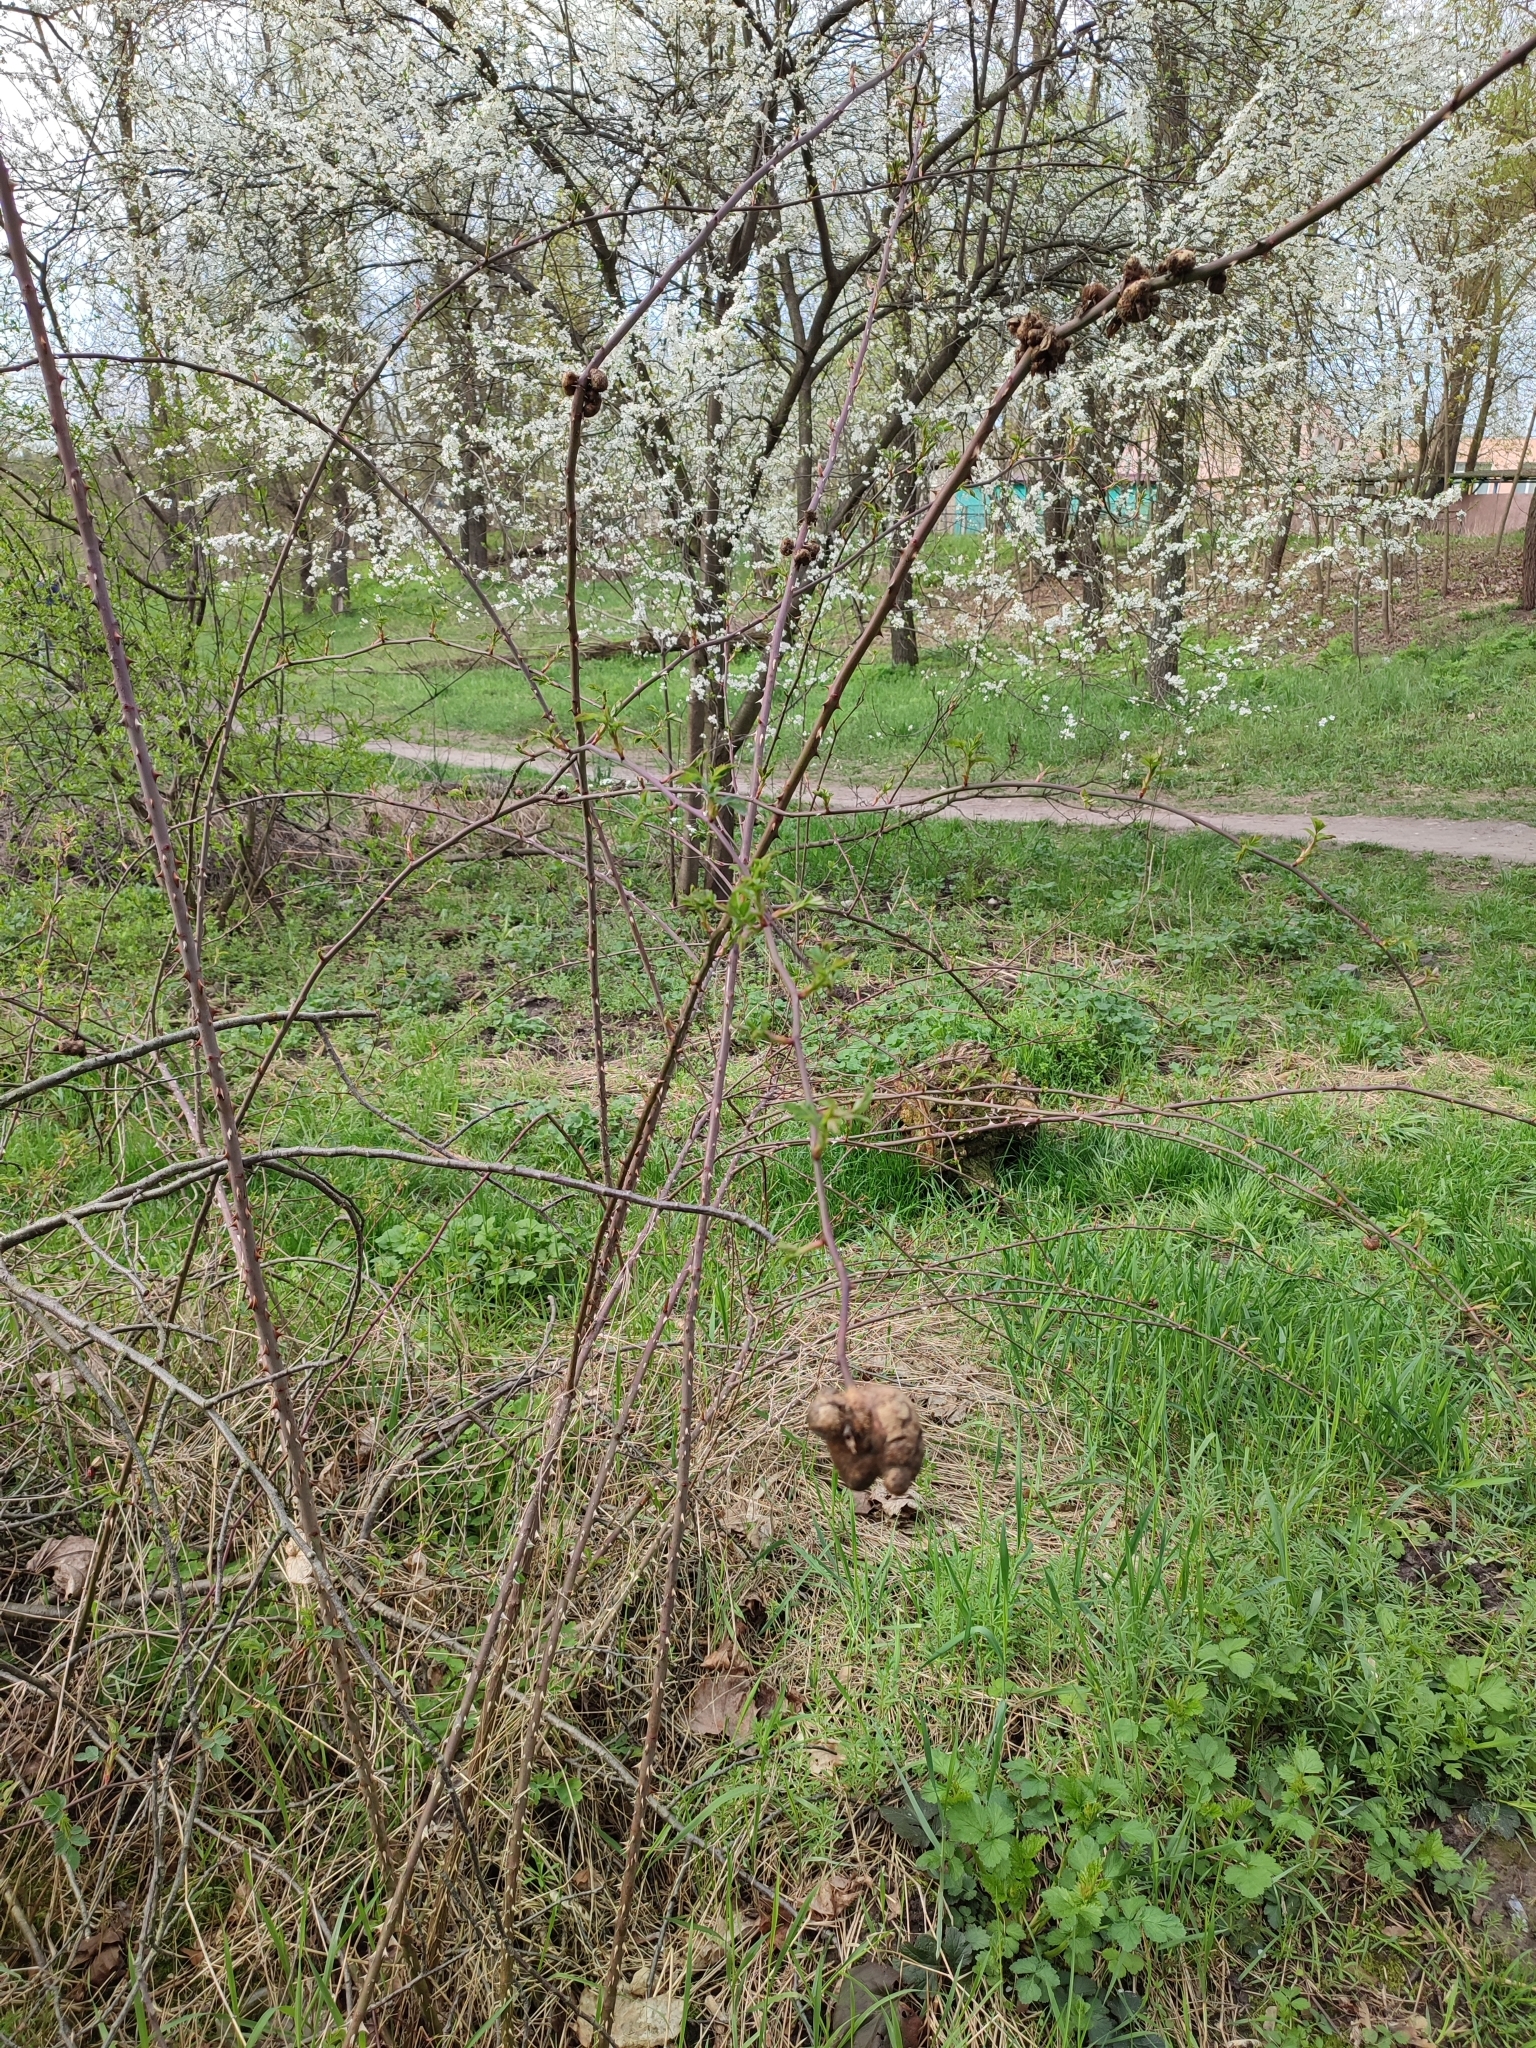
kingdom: Animalia
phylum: Arthropoda
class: Insecta
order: Hymenoptera
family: Cynipidae
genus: Diplolepis
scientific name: Diplolepis mayri
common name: Gall wasp
